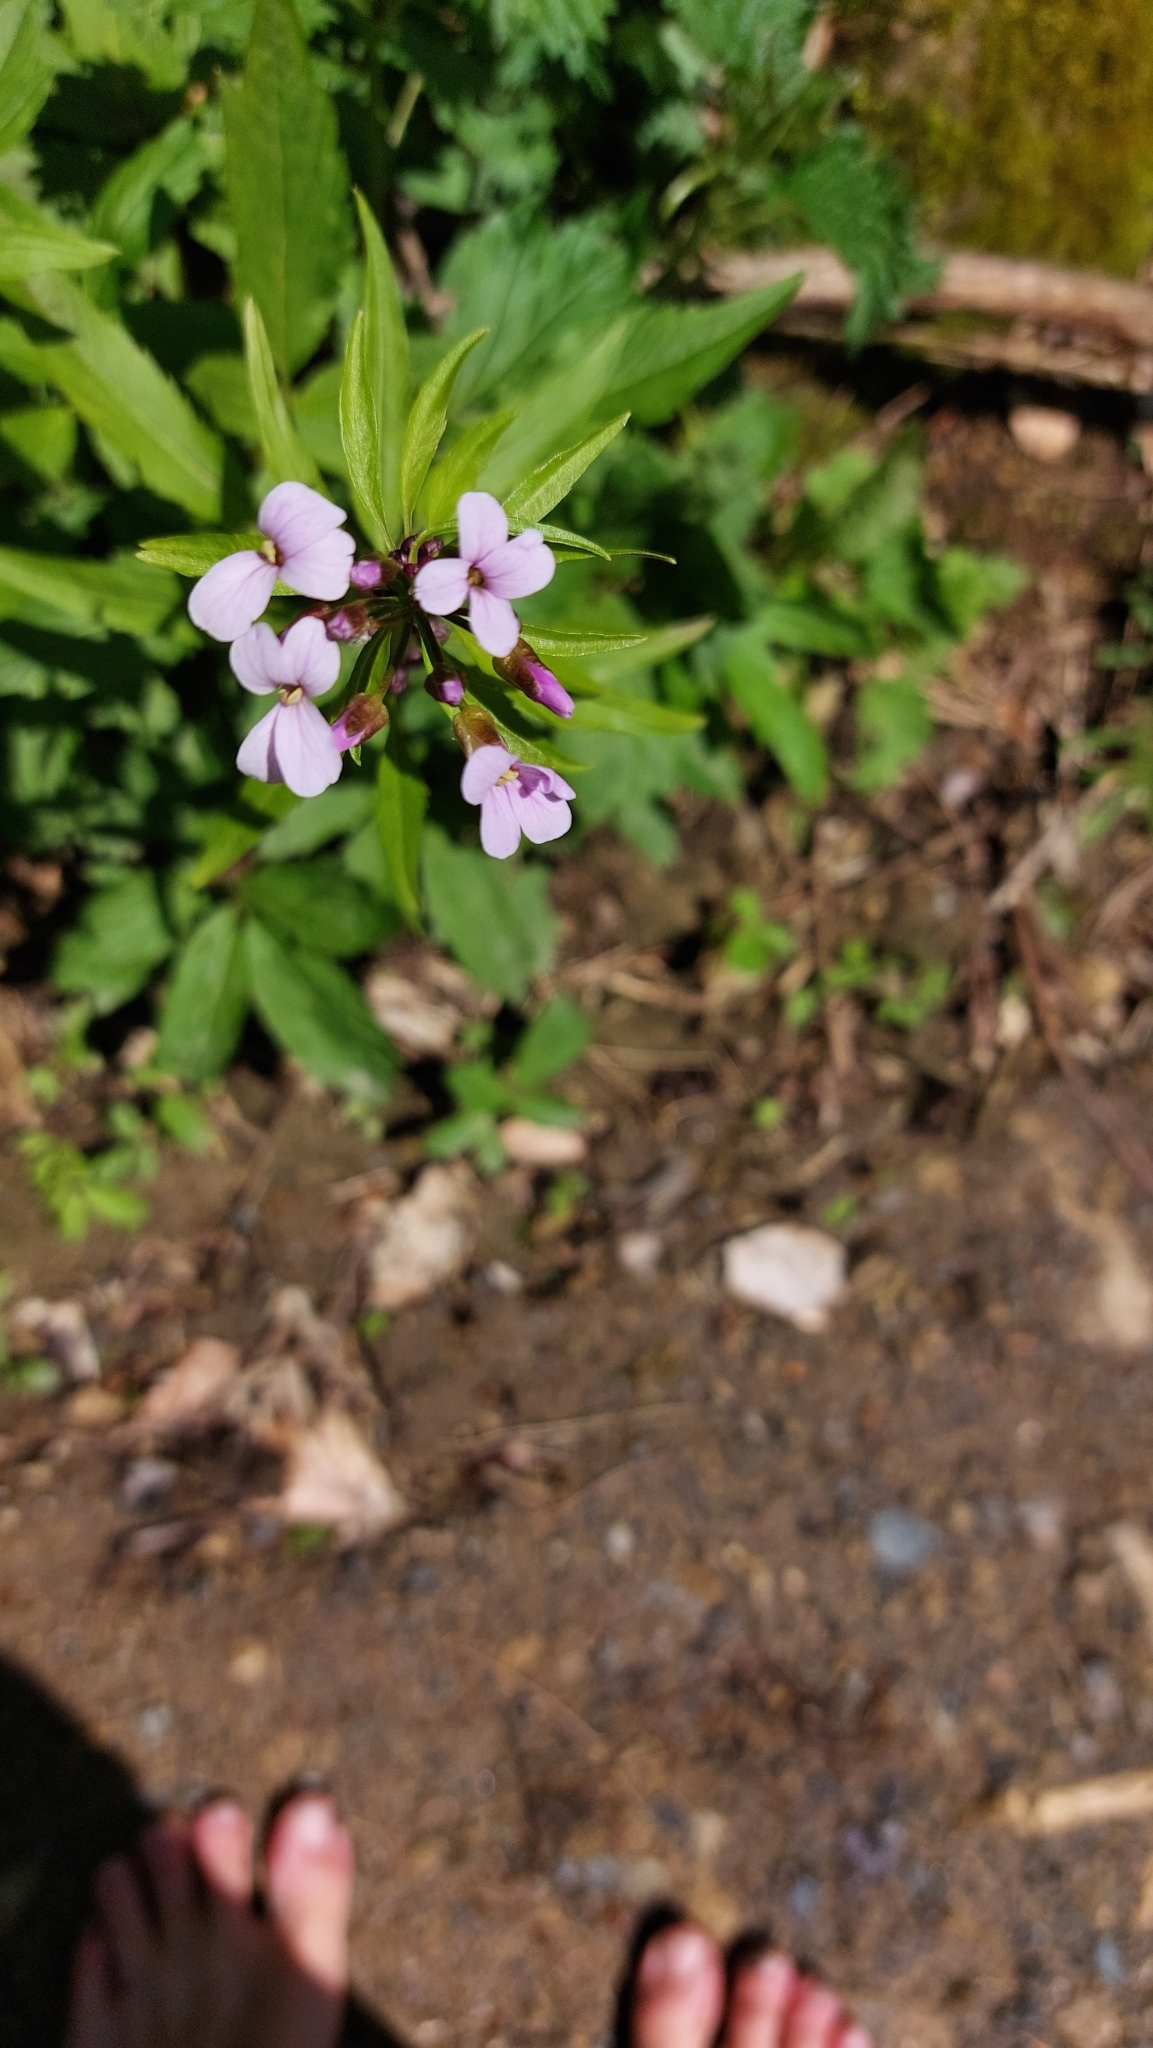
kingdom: Plantae
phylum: Tracheophyta
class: Magnoliopsida
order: Brassicales
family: Brassicaceae
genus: Cardamine
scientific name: Cardamine bulbifera
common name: Coralroot bittercress
